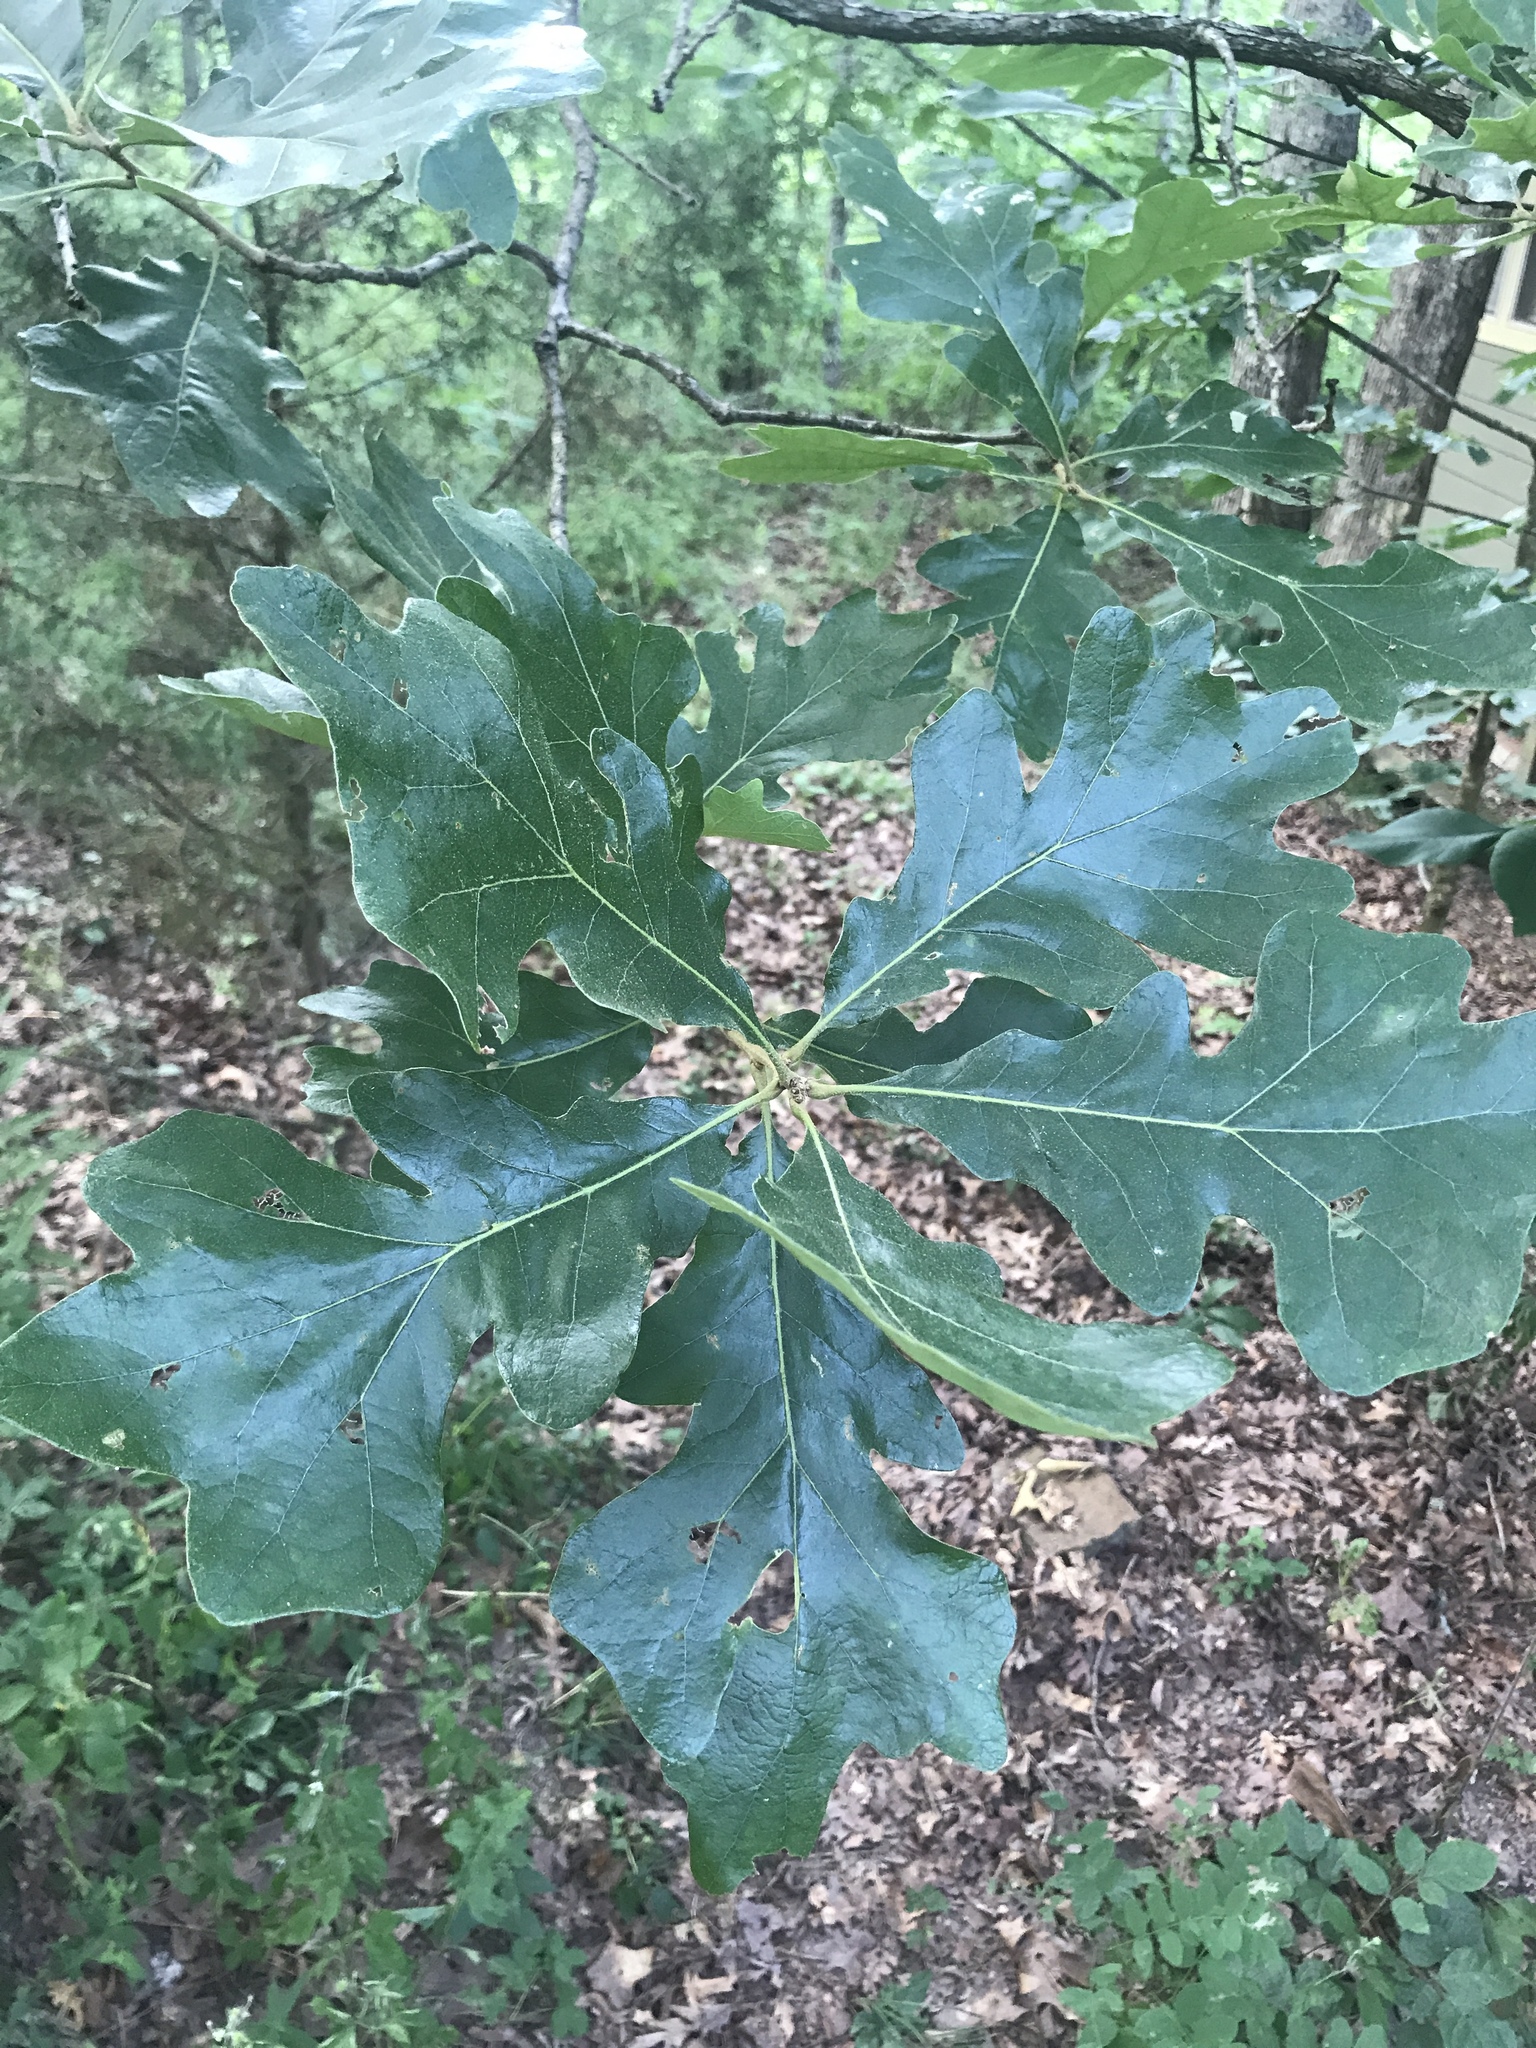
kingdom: Plantae
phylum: Tracheophyta
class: Magnoliopsida
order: Fagales
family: Fagaceae
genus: Quercus
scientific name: Quercus stellata
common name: Post oak
